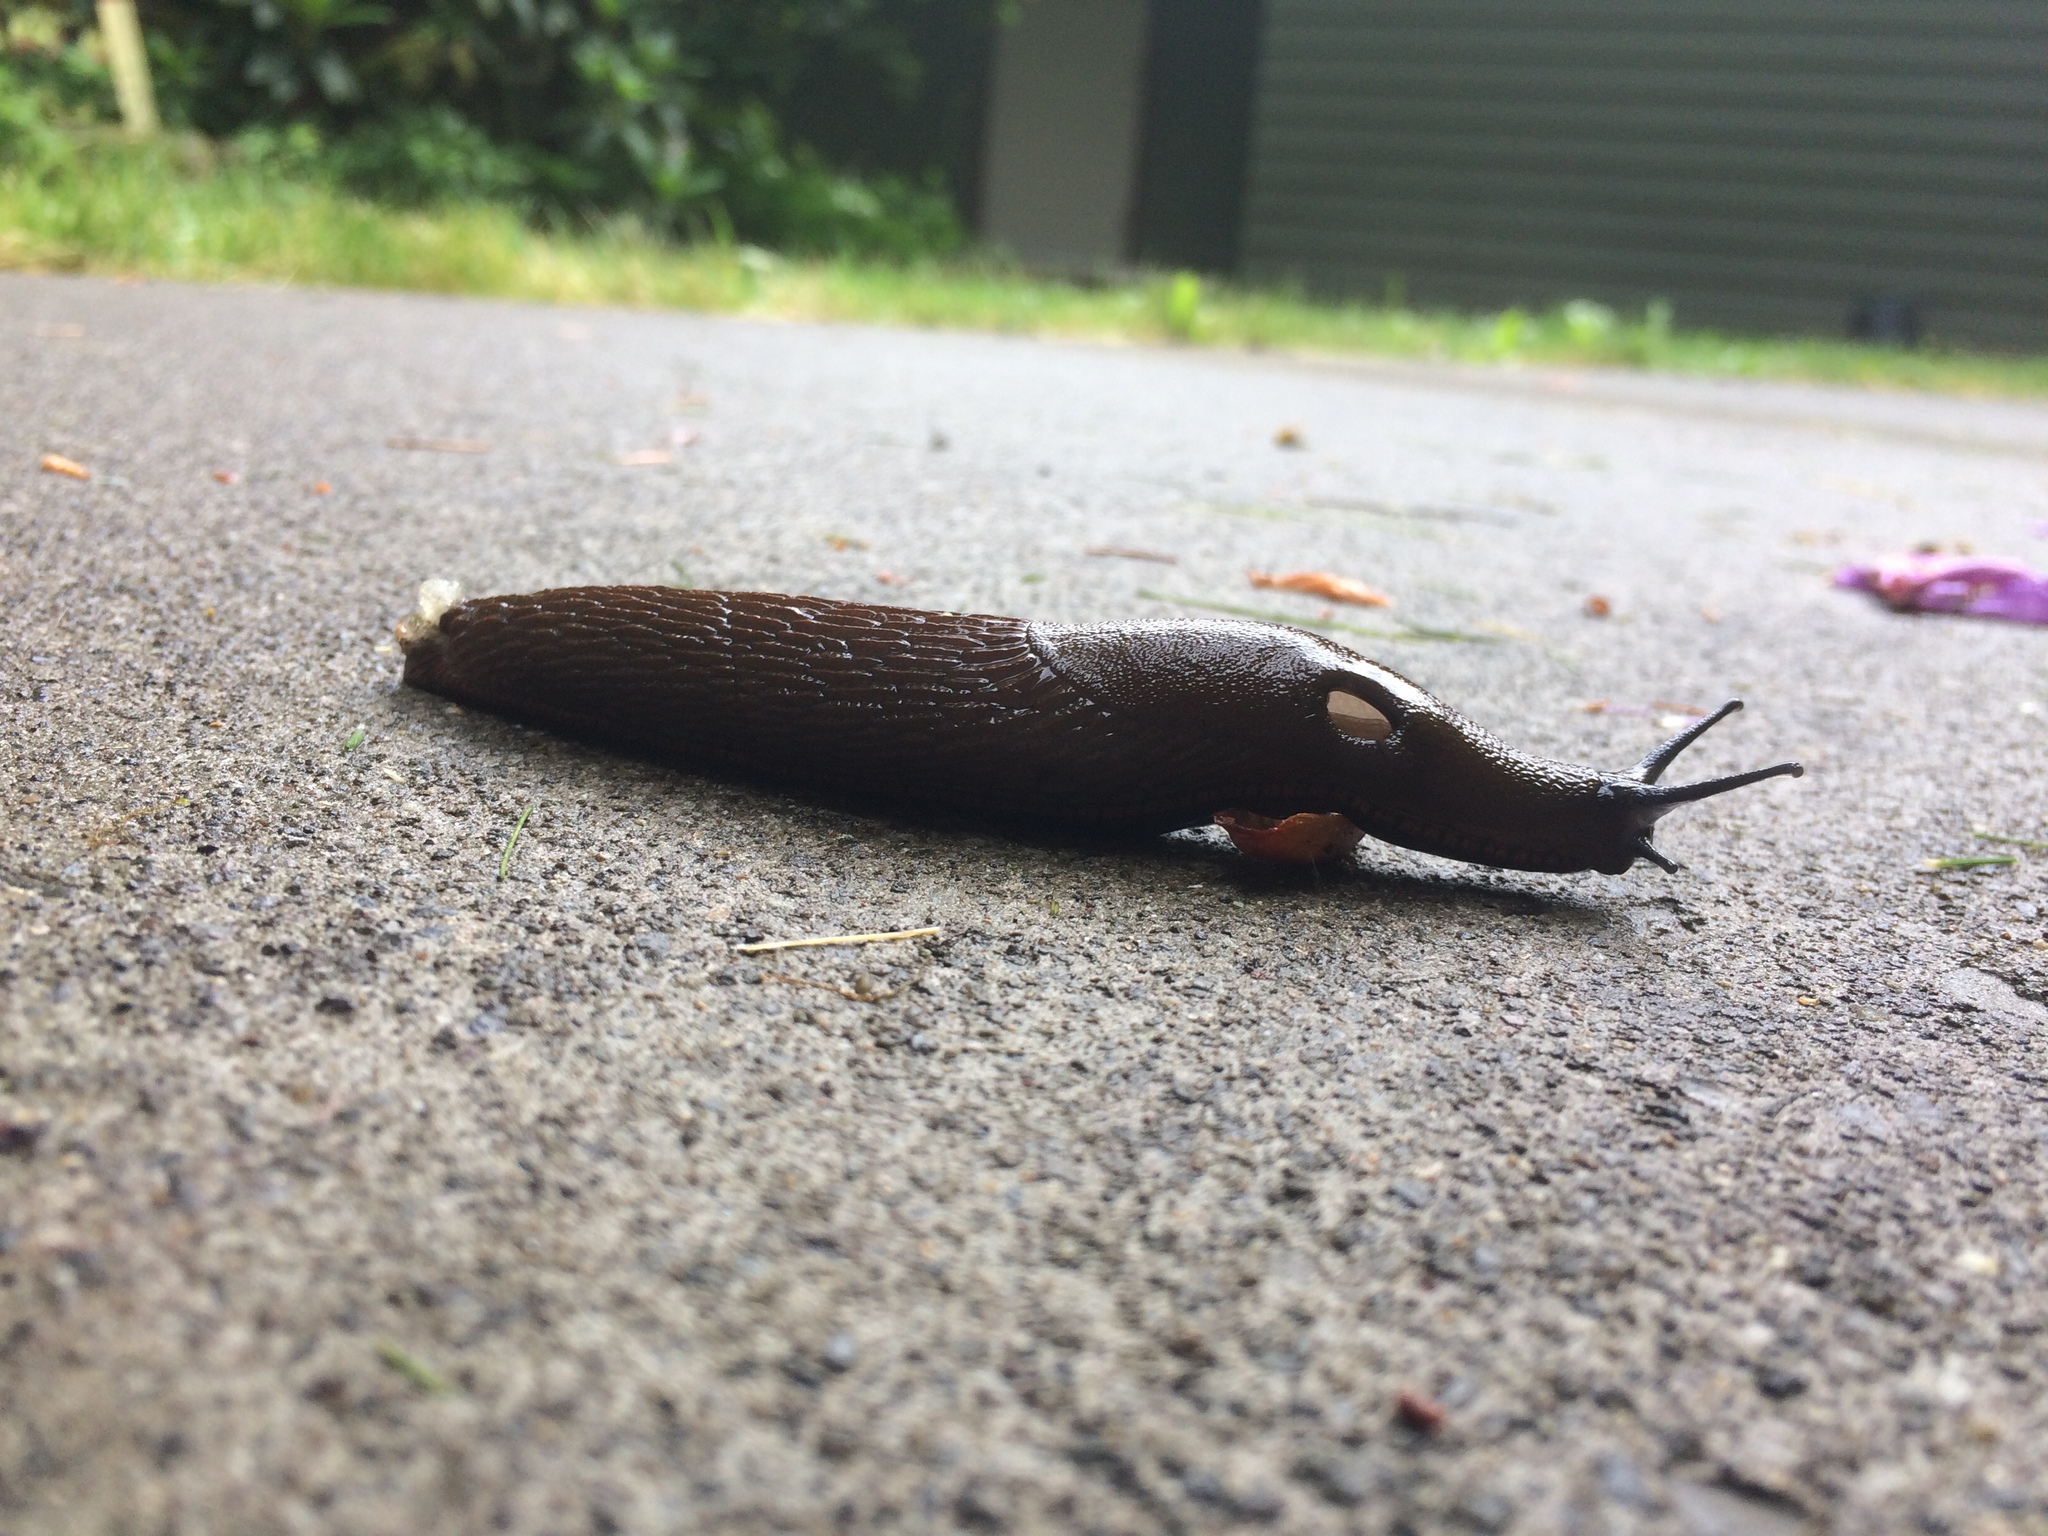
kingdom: Animalia
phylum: Mollusca
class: Gastropoda
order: Stylommatophora
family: Arionidae
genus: Arion
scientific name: Arion rufus
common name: Chocolate arion
